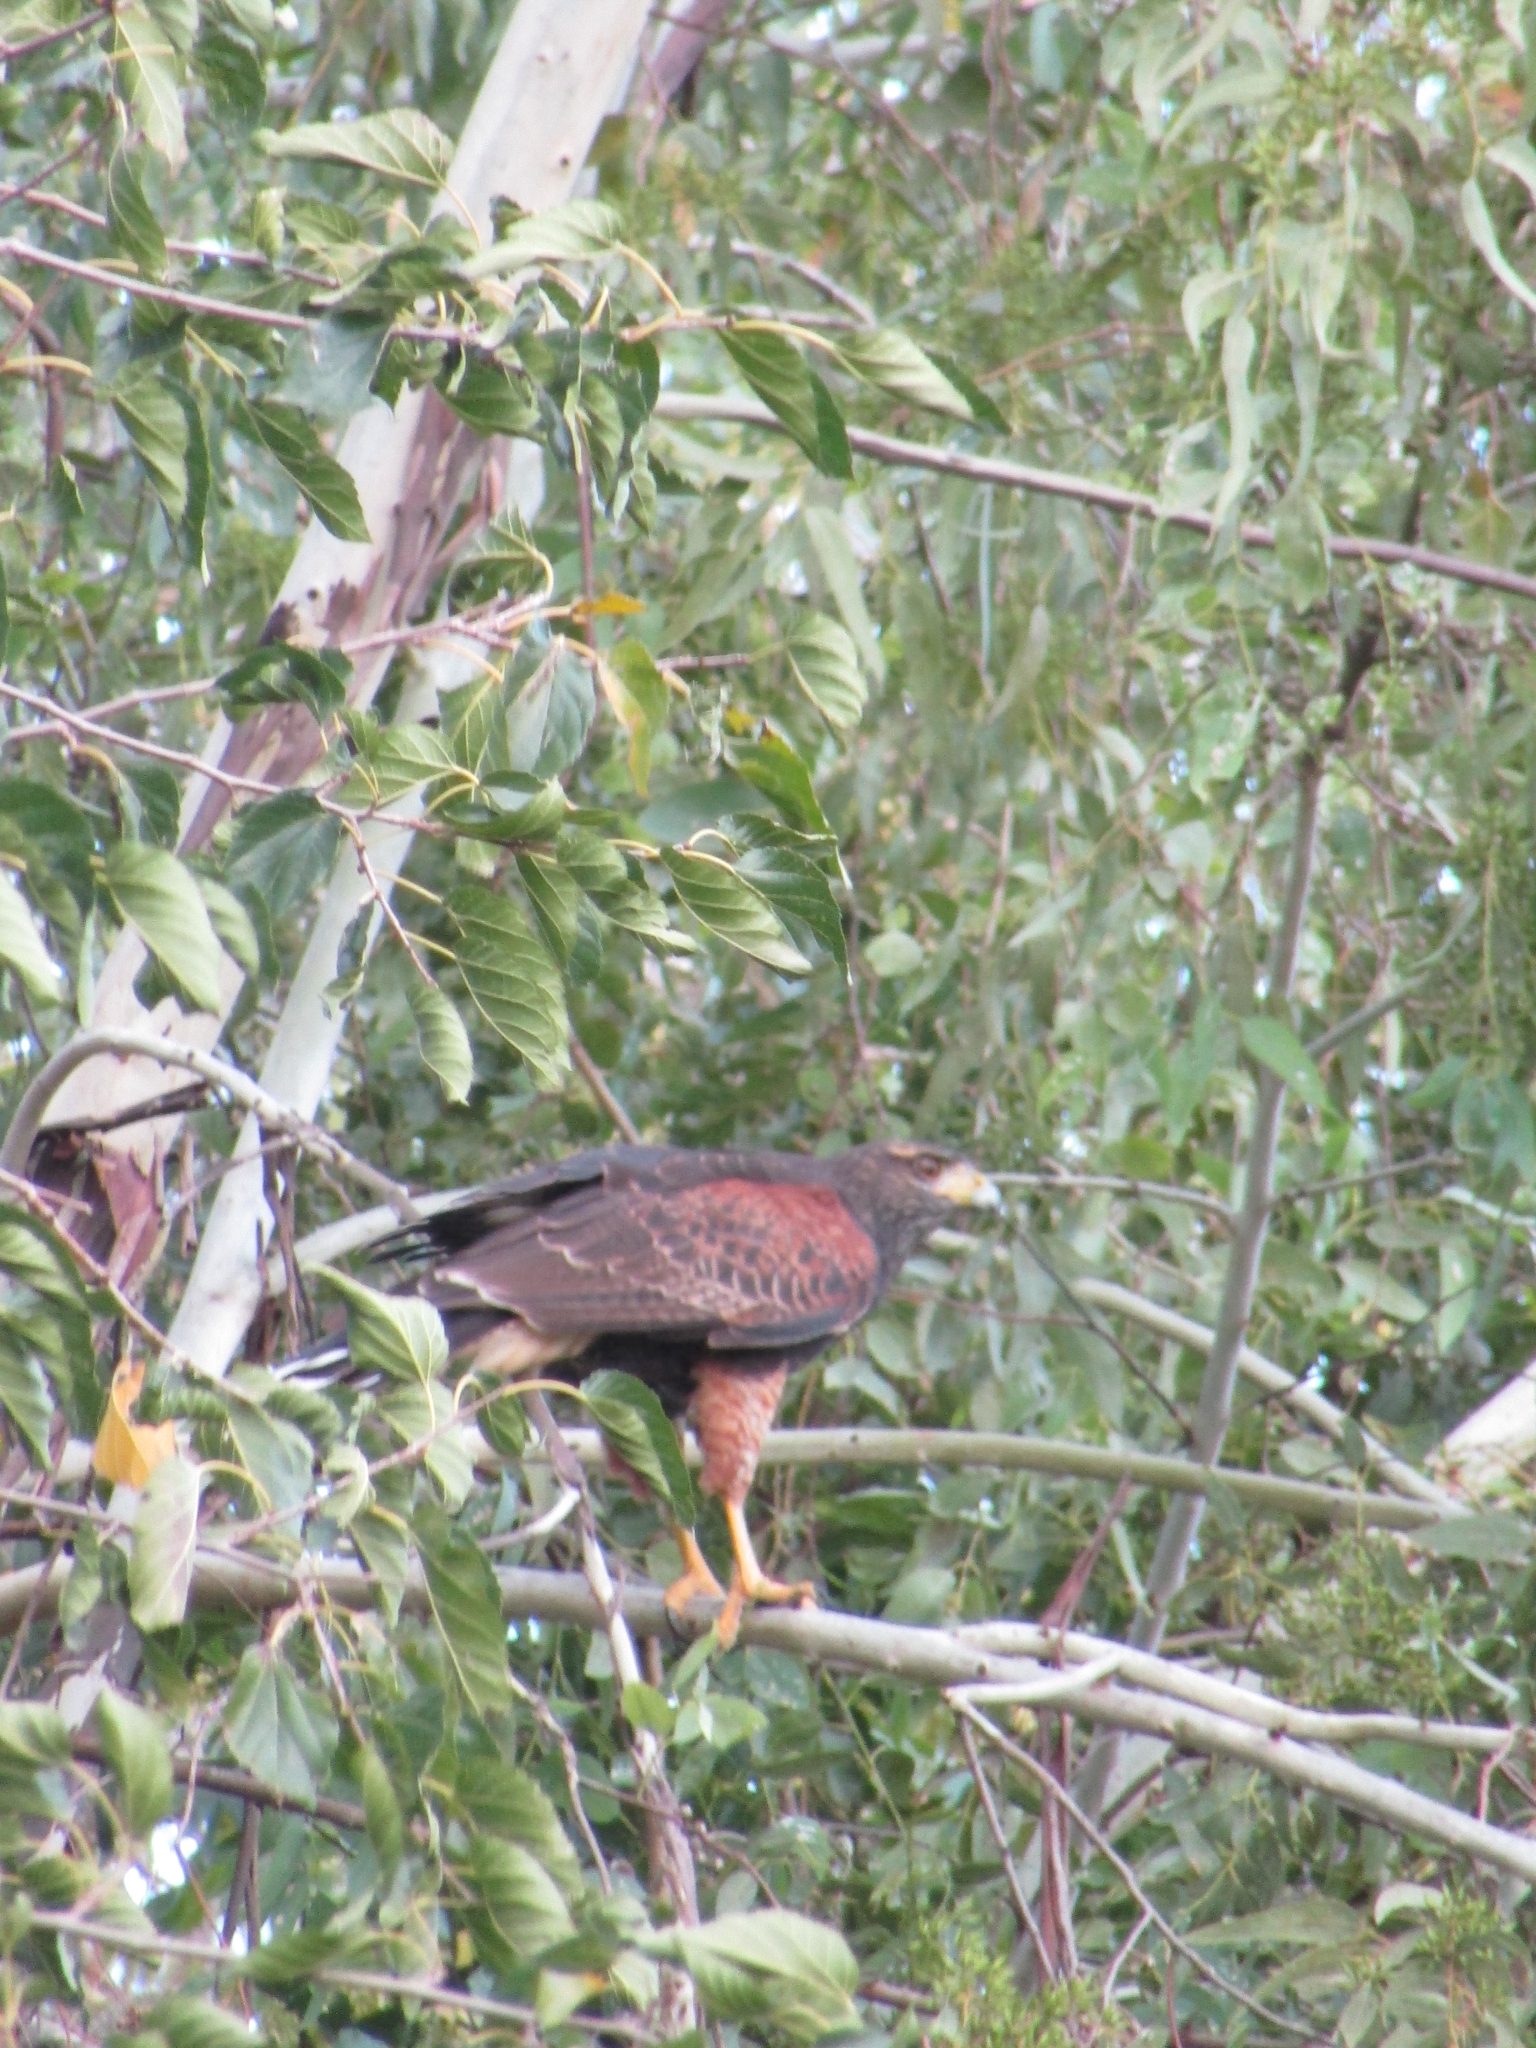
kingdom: Animalia
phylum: Chordata
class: Aves
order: Accipitriformes
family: Accipitridae
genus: Parabuteo
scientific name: Parabuteo unicinctus
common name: Harris's hawk
